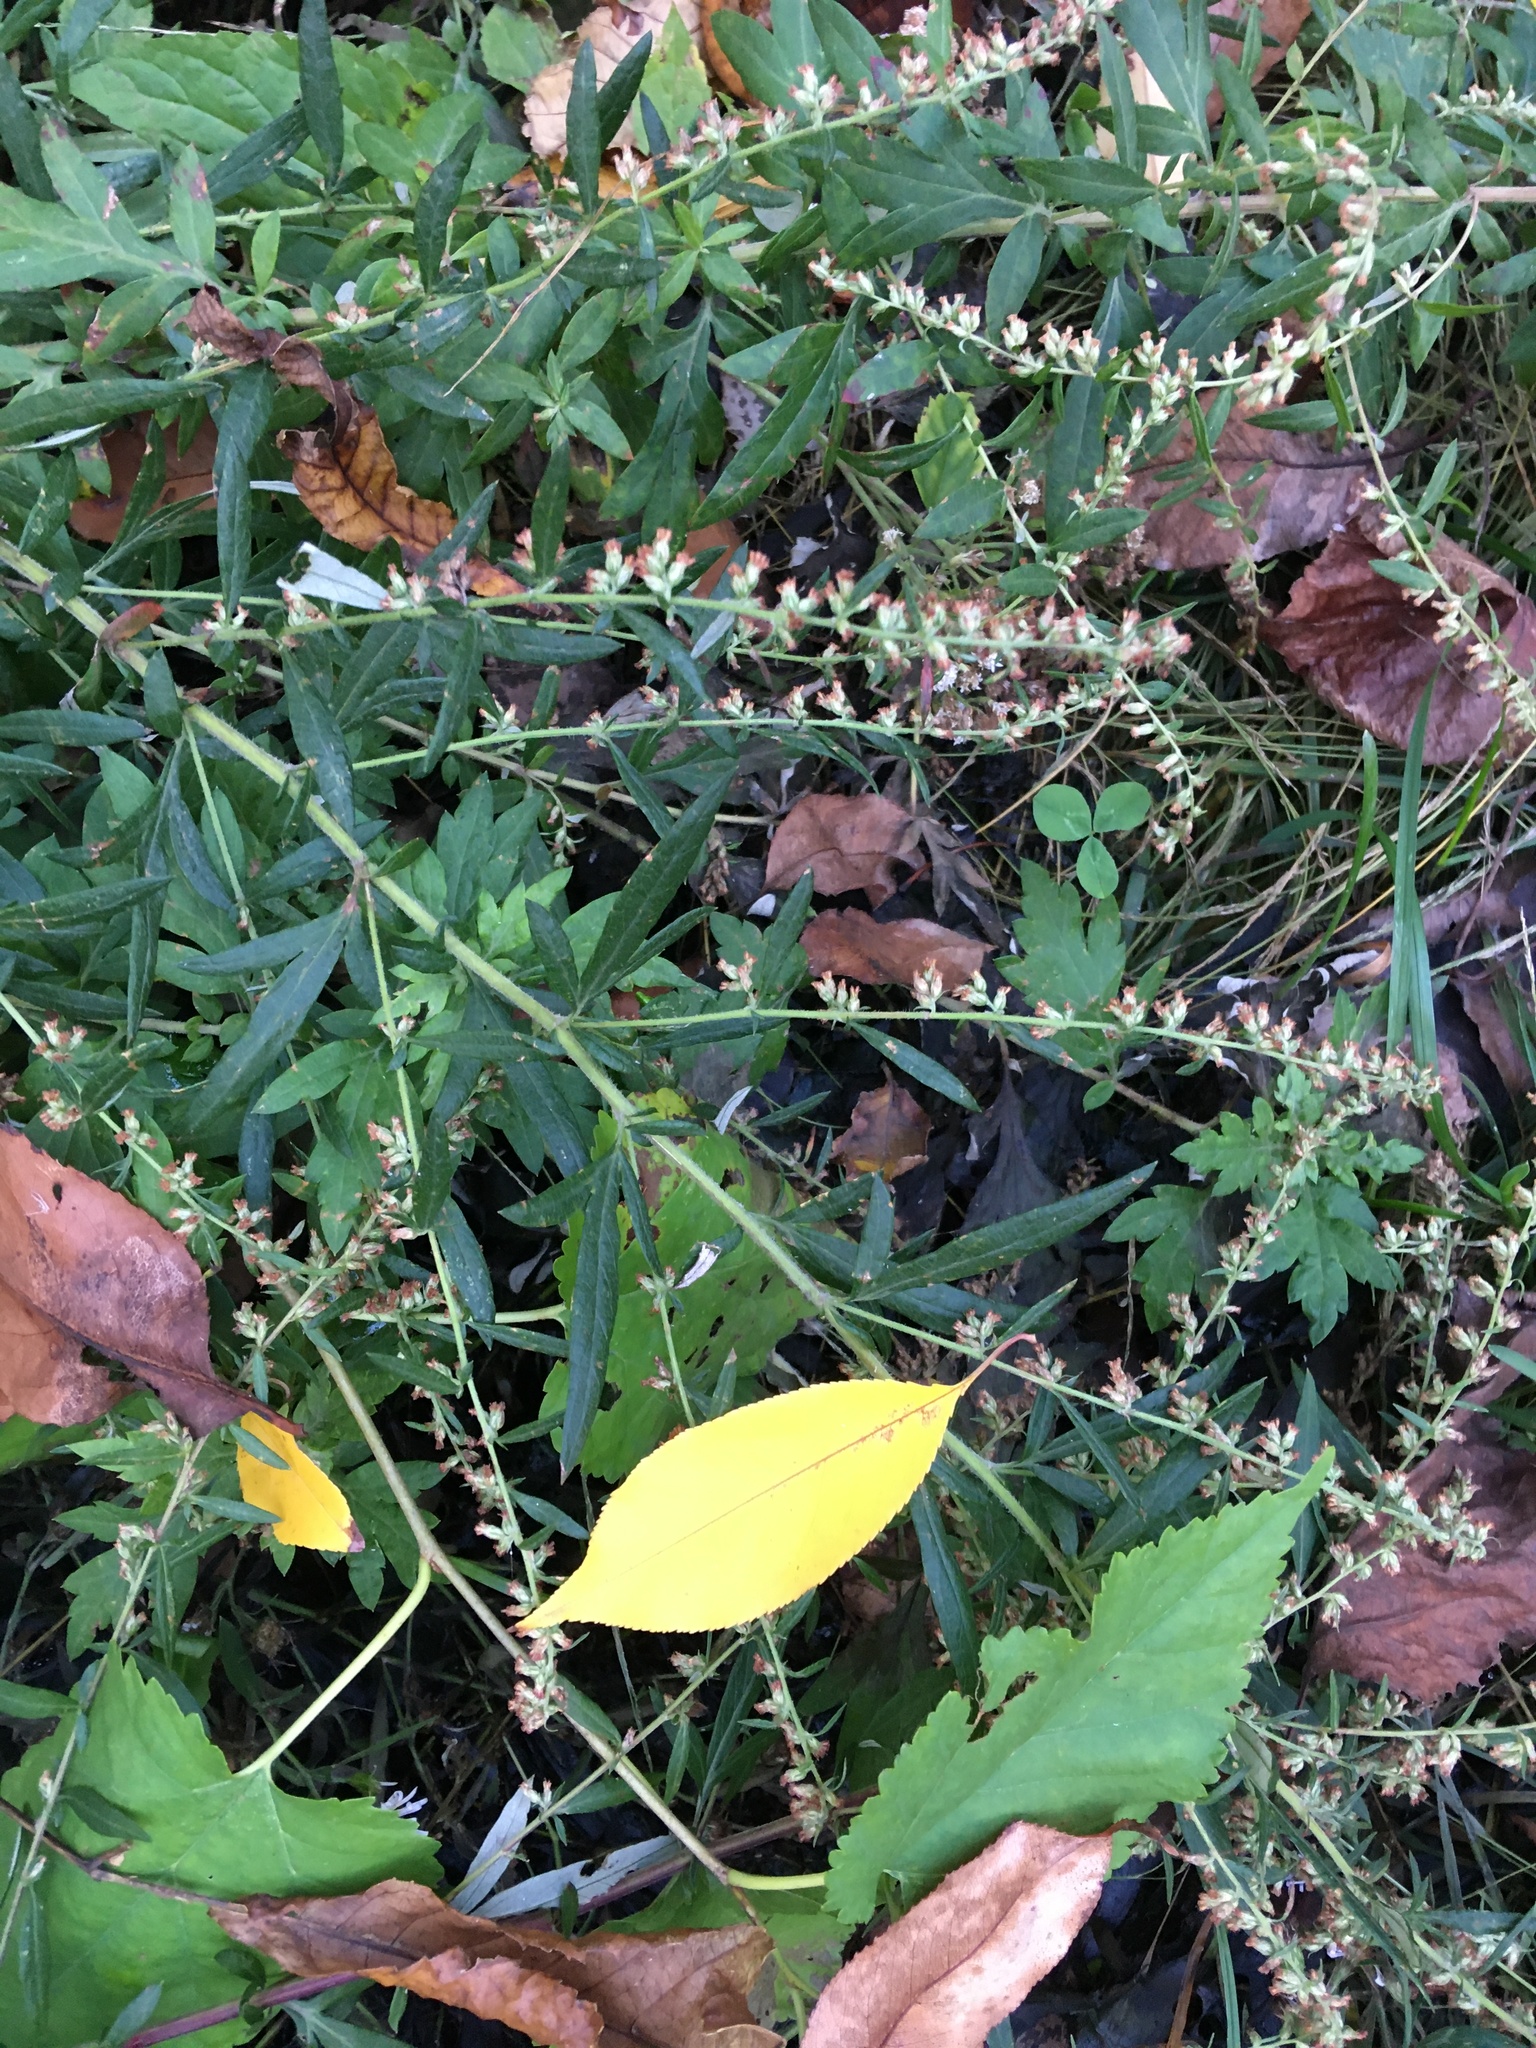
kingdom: Plantae
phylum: Tracheophyta
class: Magnoliopsida
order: Asterales
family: Asteraceae
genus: Artemisia
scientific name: Artemisia vulgaris
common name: Mugwort
